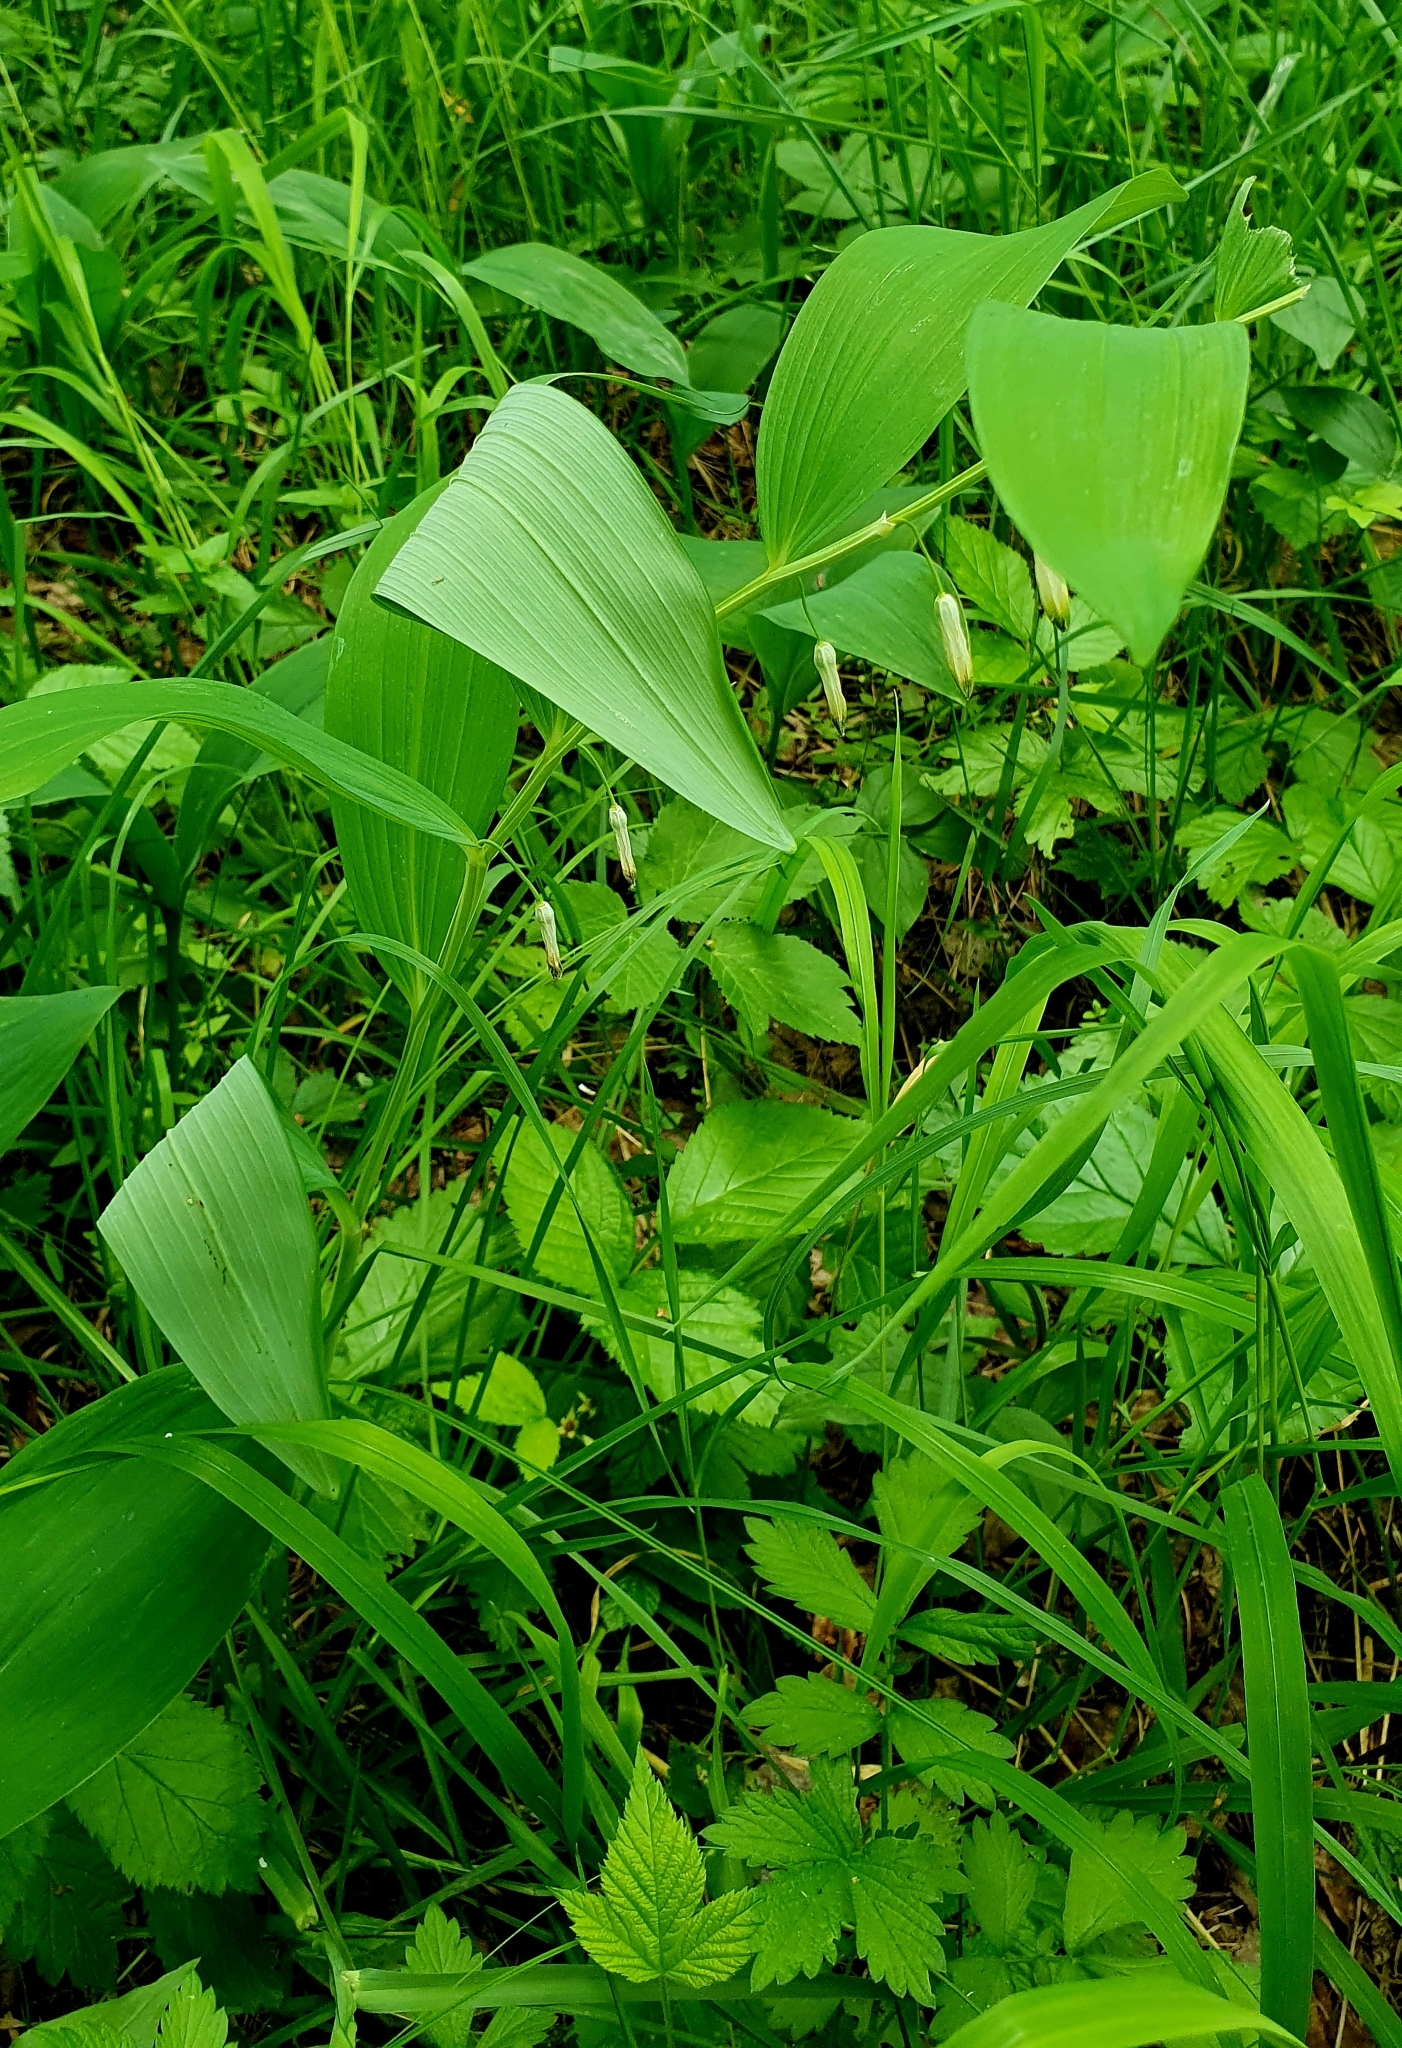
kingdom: Plantae
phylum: Tracheophyta
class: Liliopsida
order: Asparagales
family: Asparagaceae
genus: Polygonatum
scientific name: Polygonatum odoratum
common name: Angular solomon's-seal
